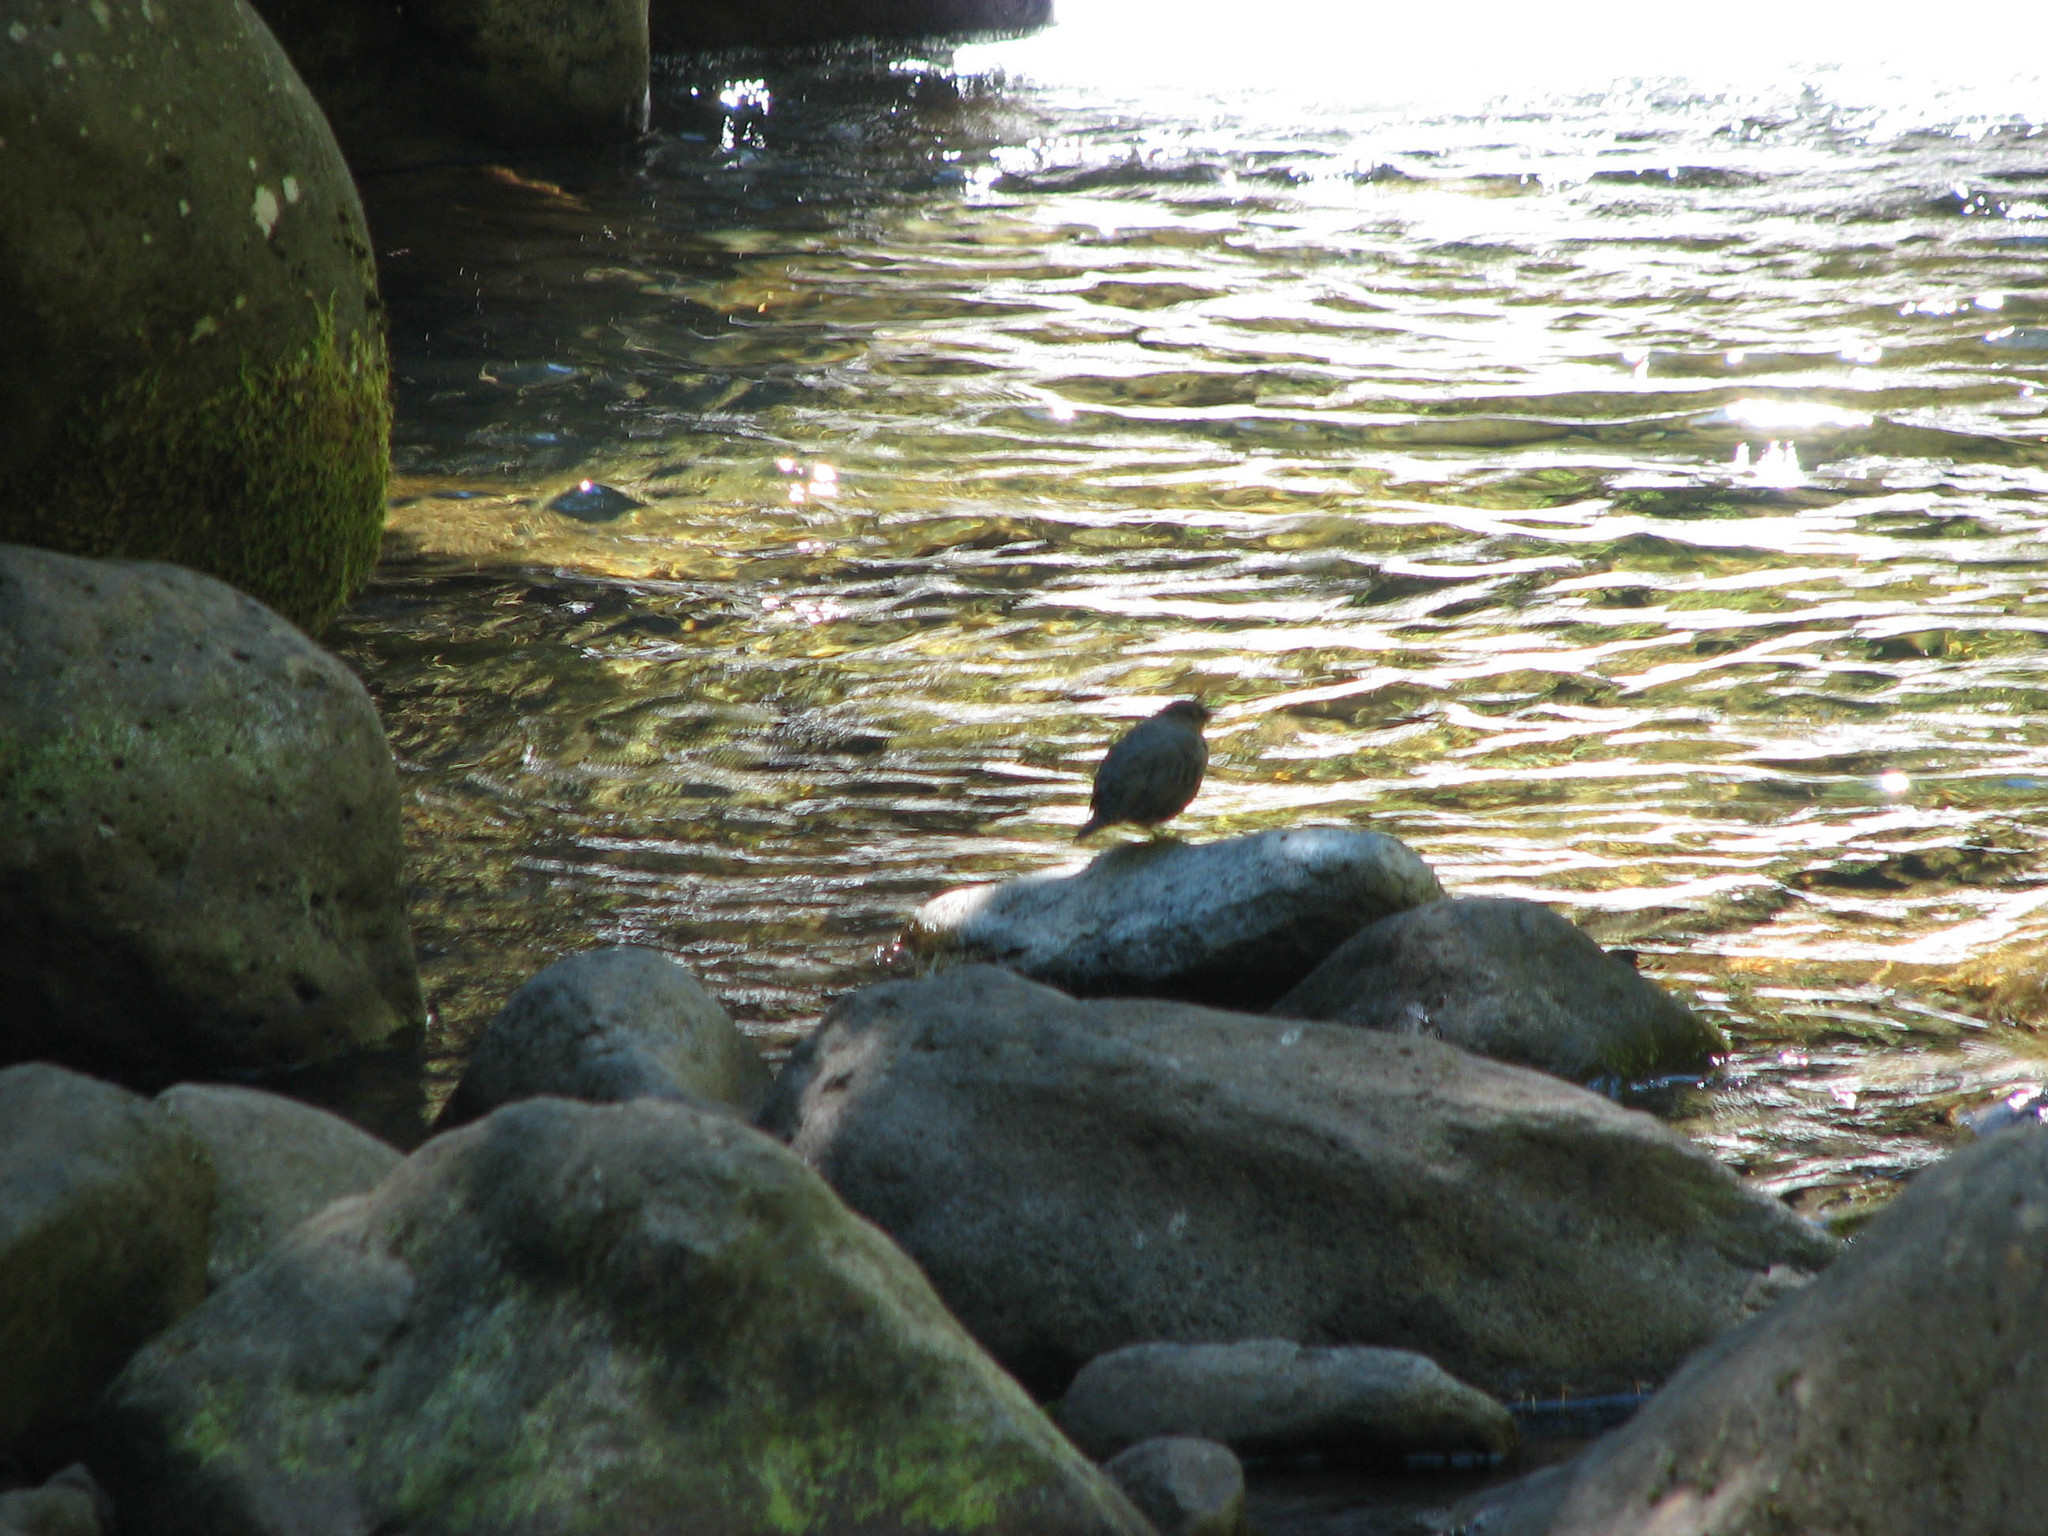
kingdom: Animalia
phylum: Chordata
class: Aves
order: Passeriformes
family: Cinclidae
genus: Cinclus
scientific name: Cinclus mexicanus
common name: American dipper
